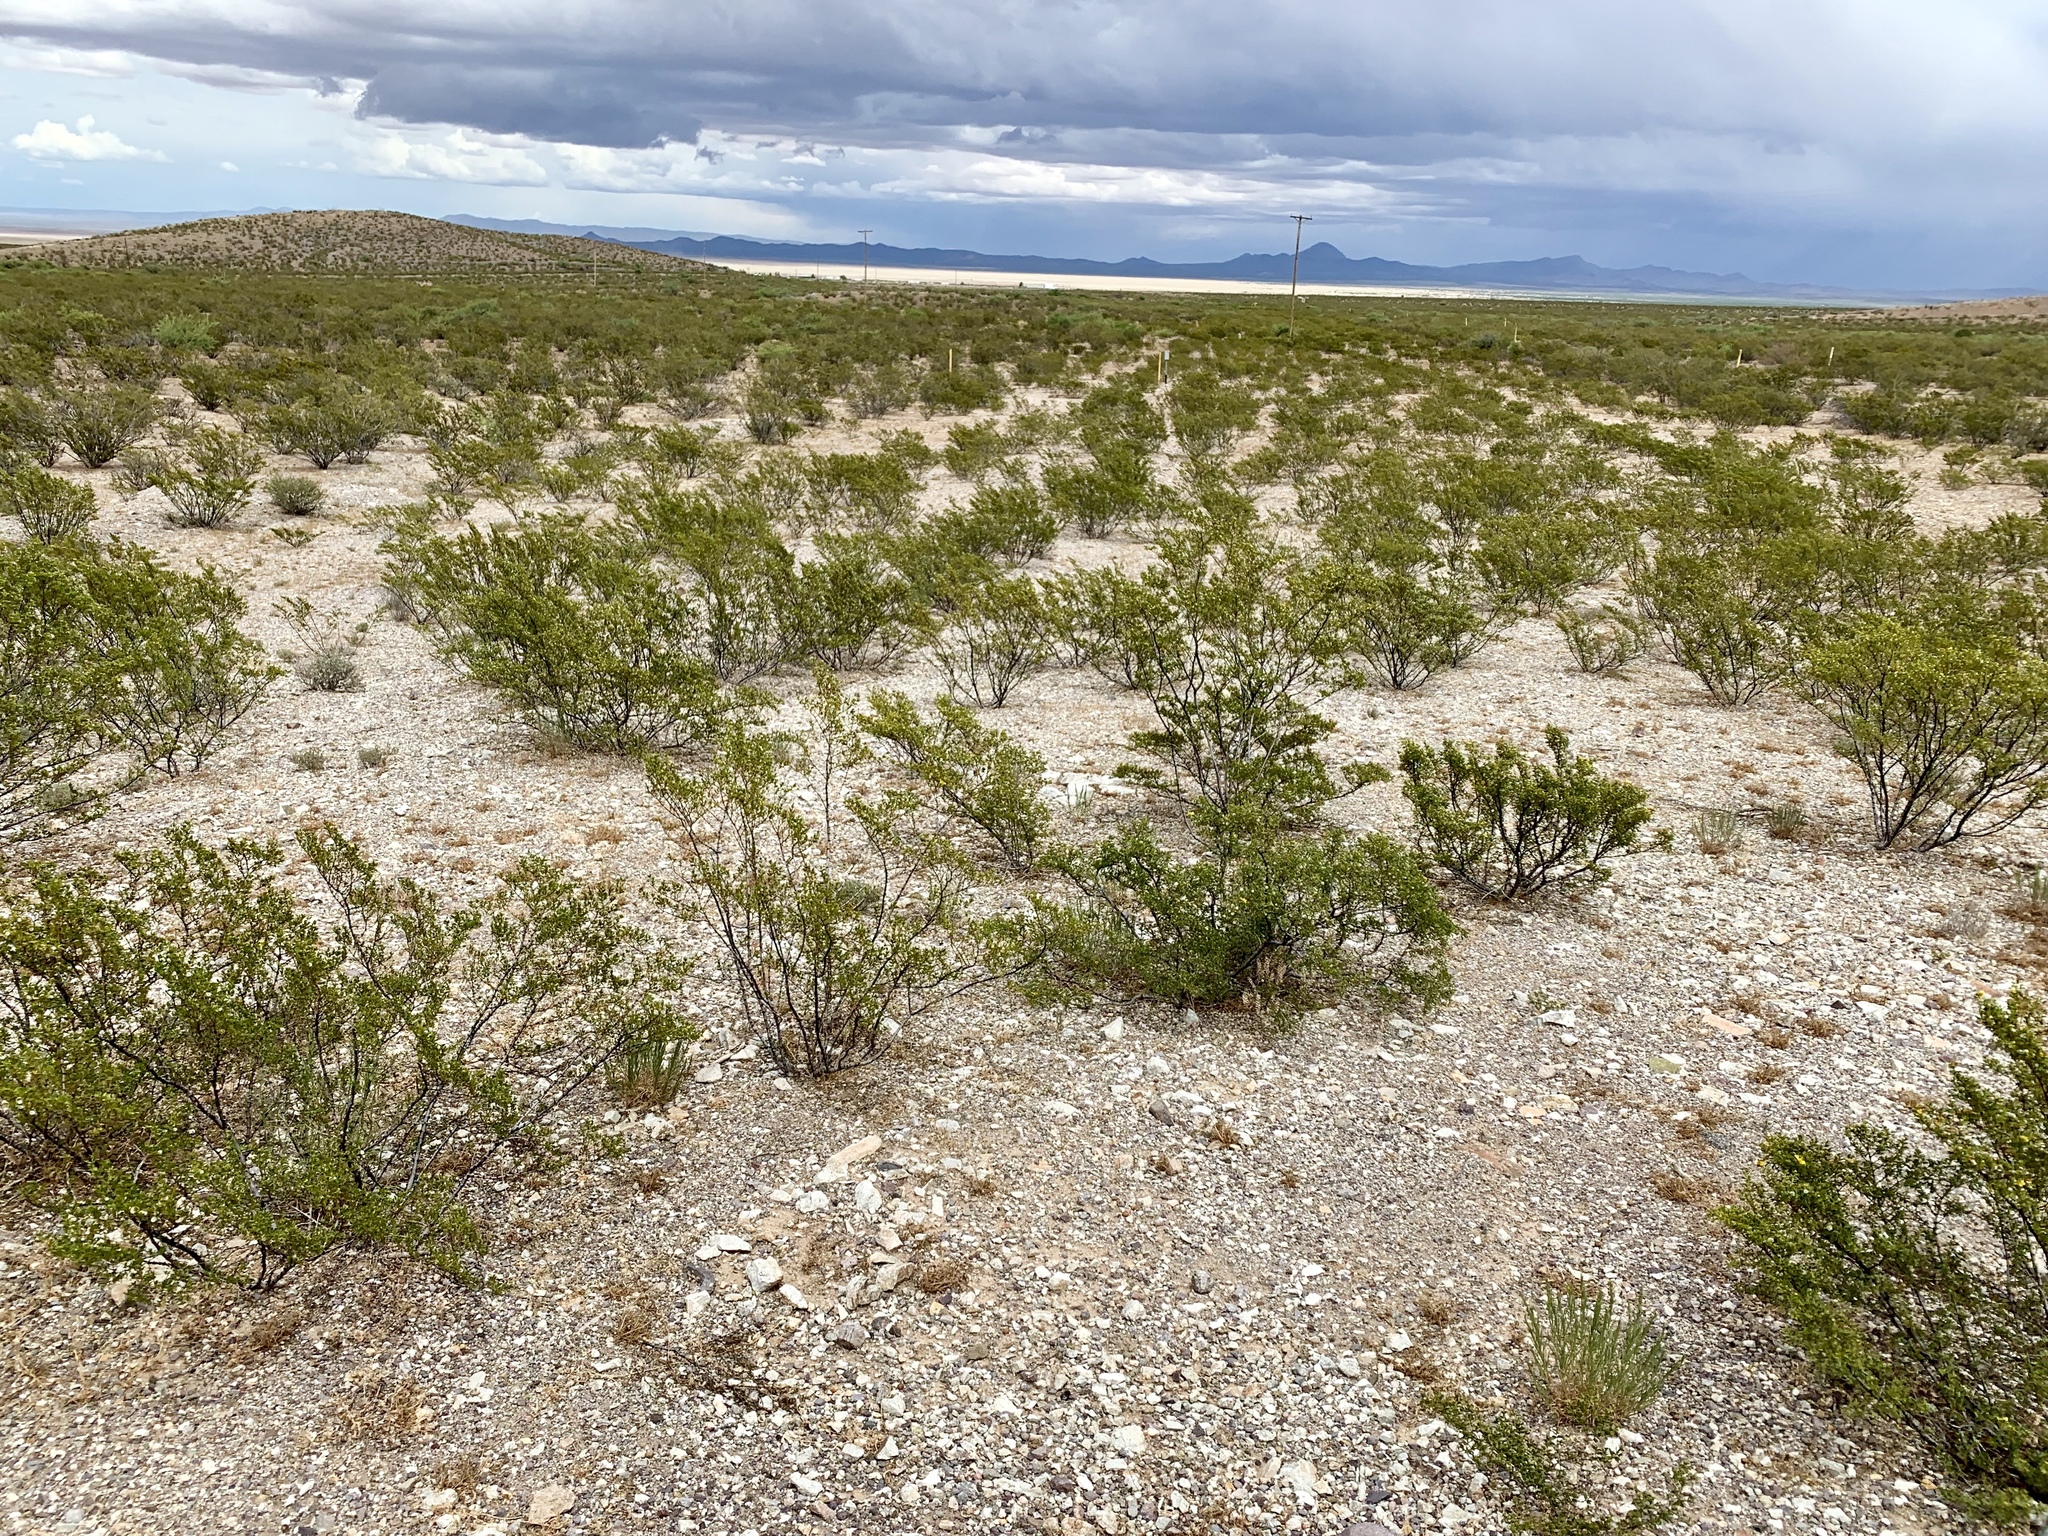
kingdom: Plantae
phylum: Tracheophyta
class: Magnoliopsida
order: Zygophyllales
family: Zygophyllaceae
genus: Larrea
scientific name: Larrea tridentata
